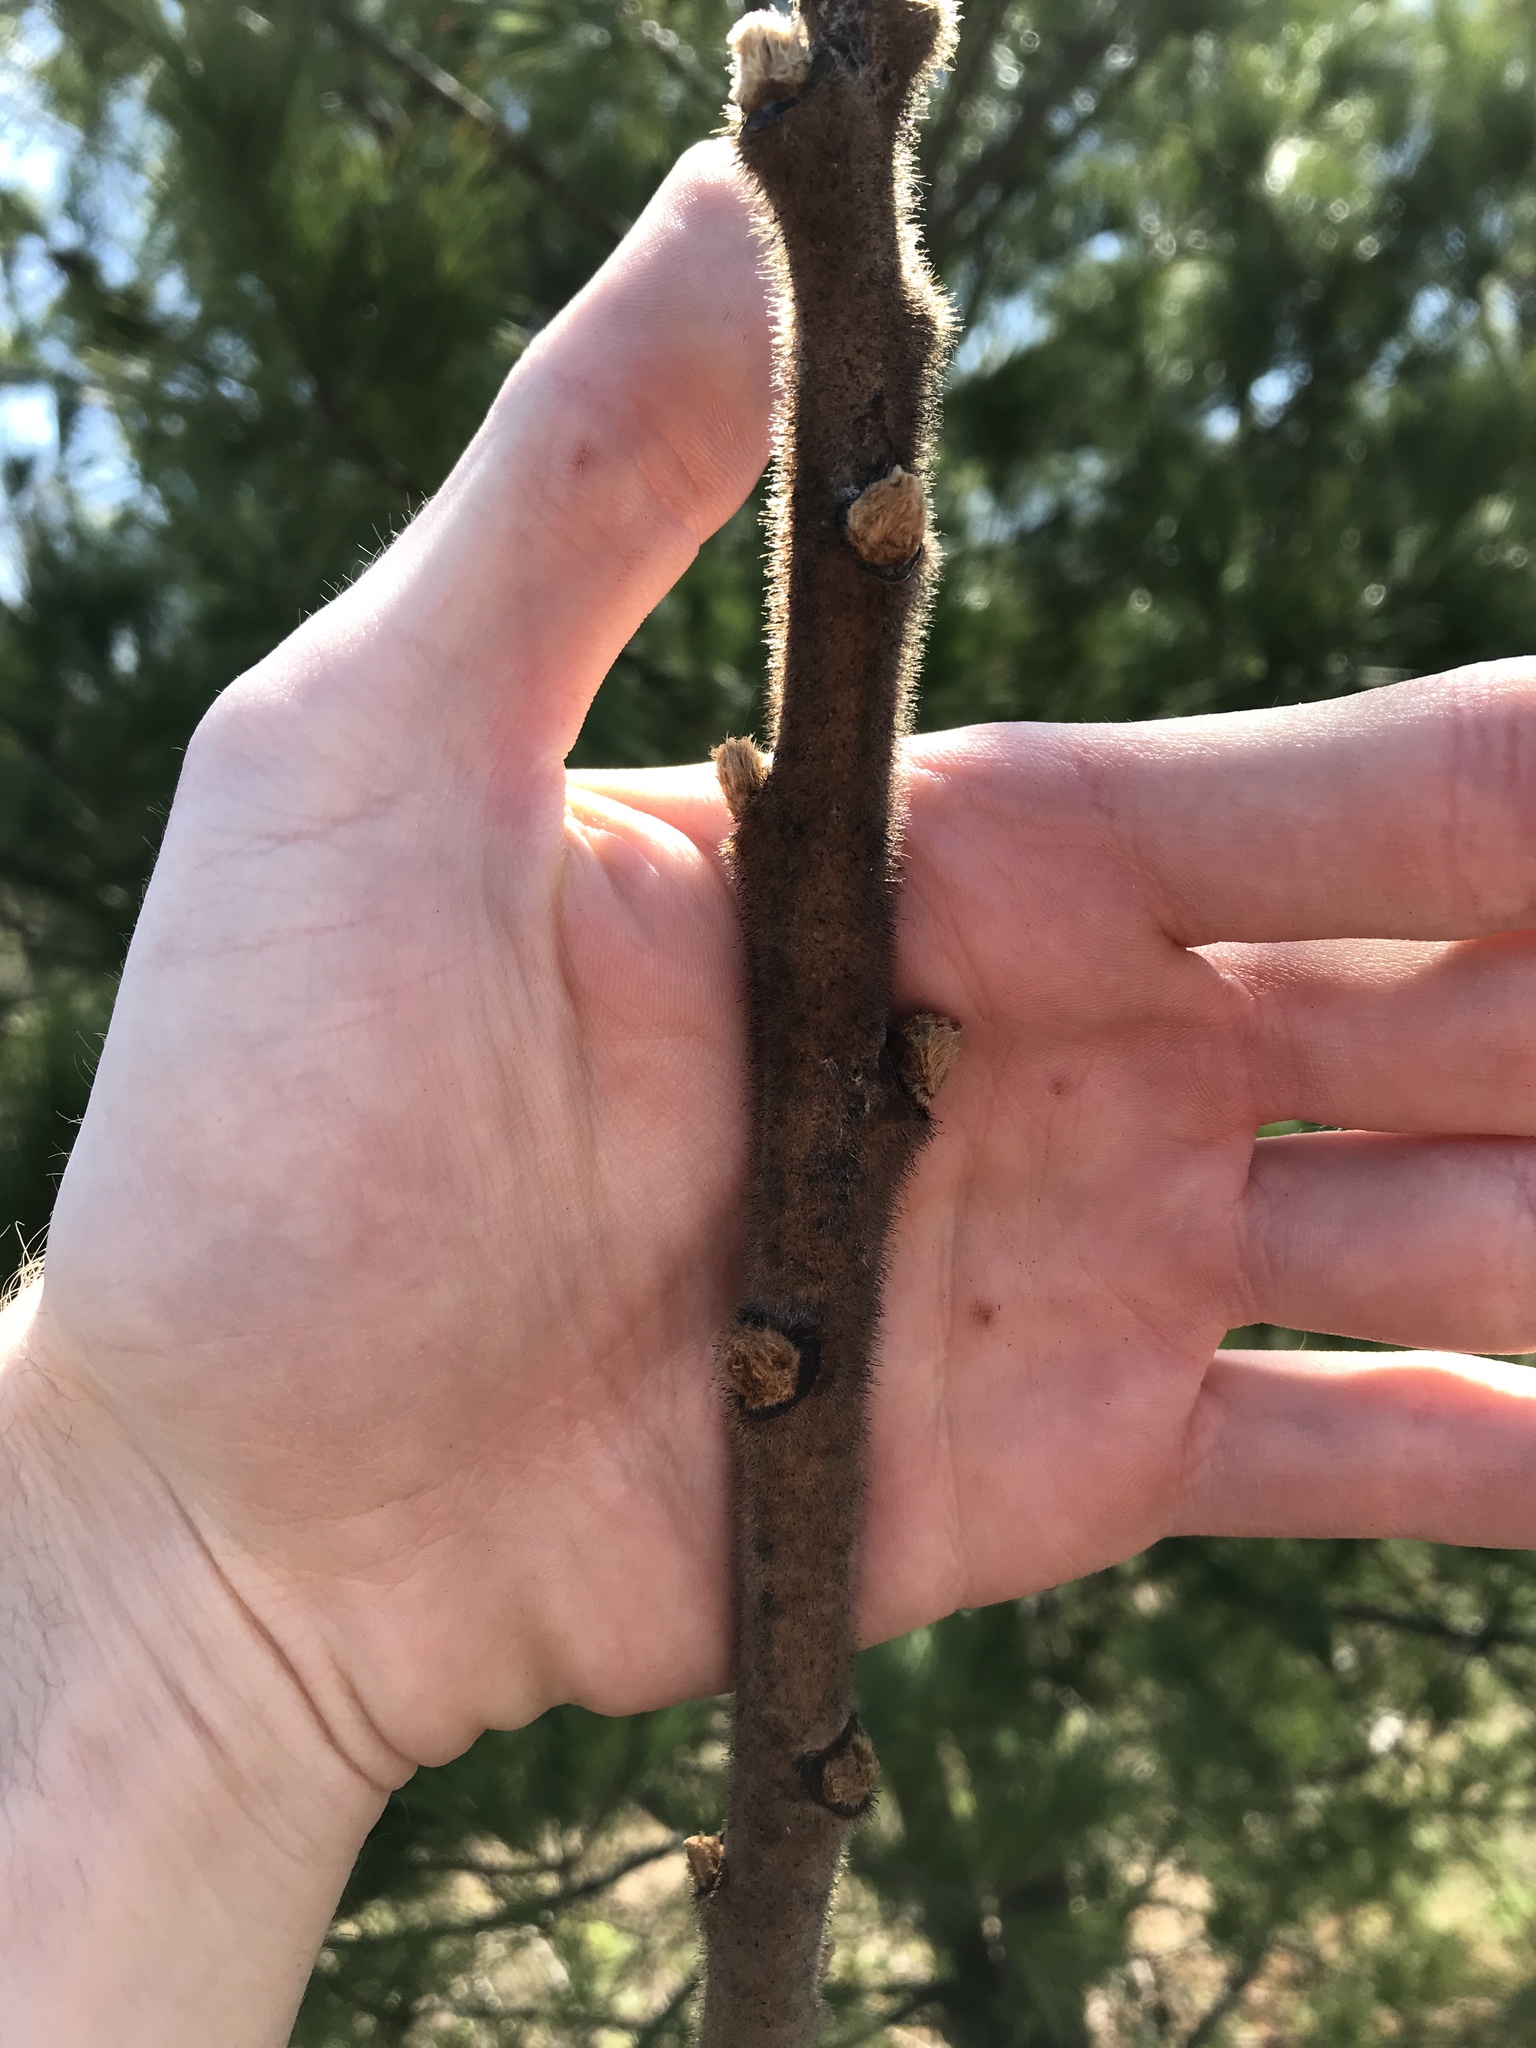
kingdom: Plantae
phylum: Tracheophyta
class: Magnoliopsida
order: Sapindales
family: Anacardiaceae
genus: Rhus
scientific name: Rhus typhina
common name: Staghorn sumac
